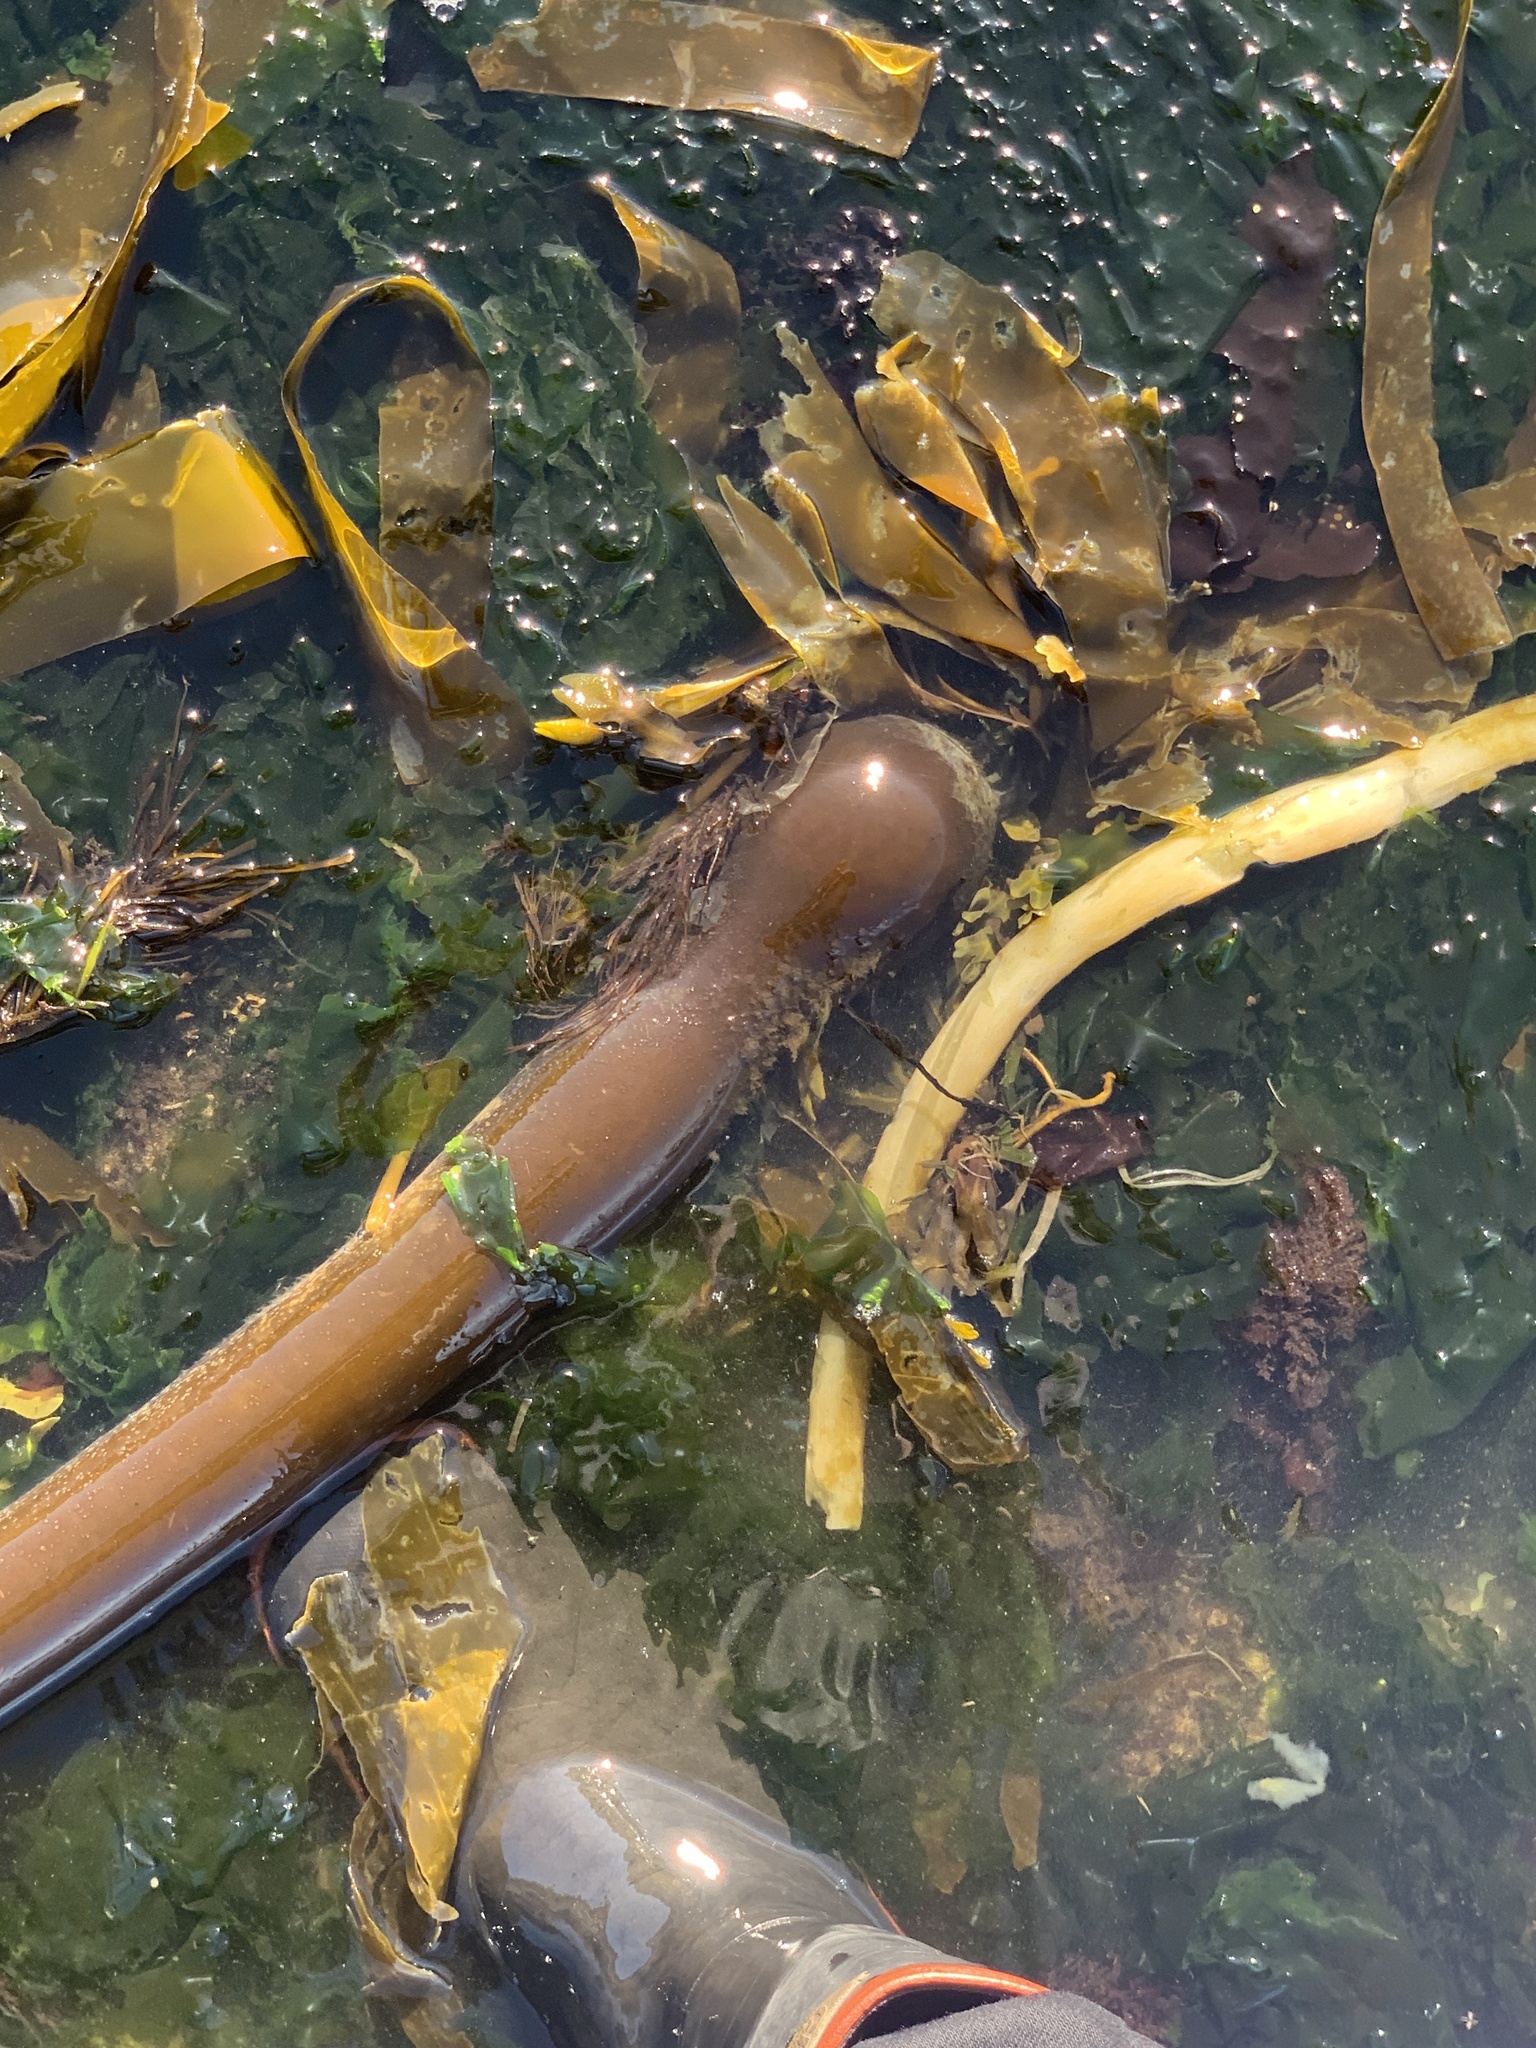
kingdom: Chromista
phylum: Ochrophyta
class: Phaeophyceae
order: Laminariales
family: Laminariaceae
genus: Nereocystis
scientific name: Nereocystis luetkeana
